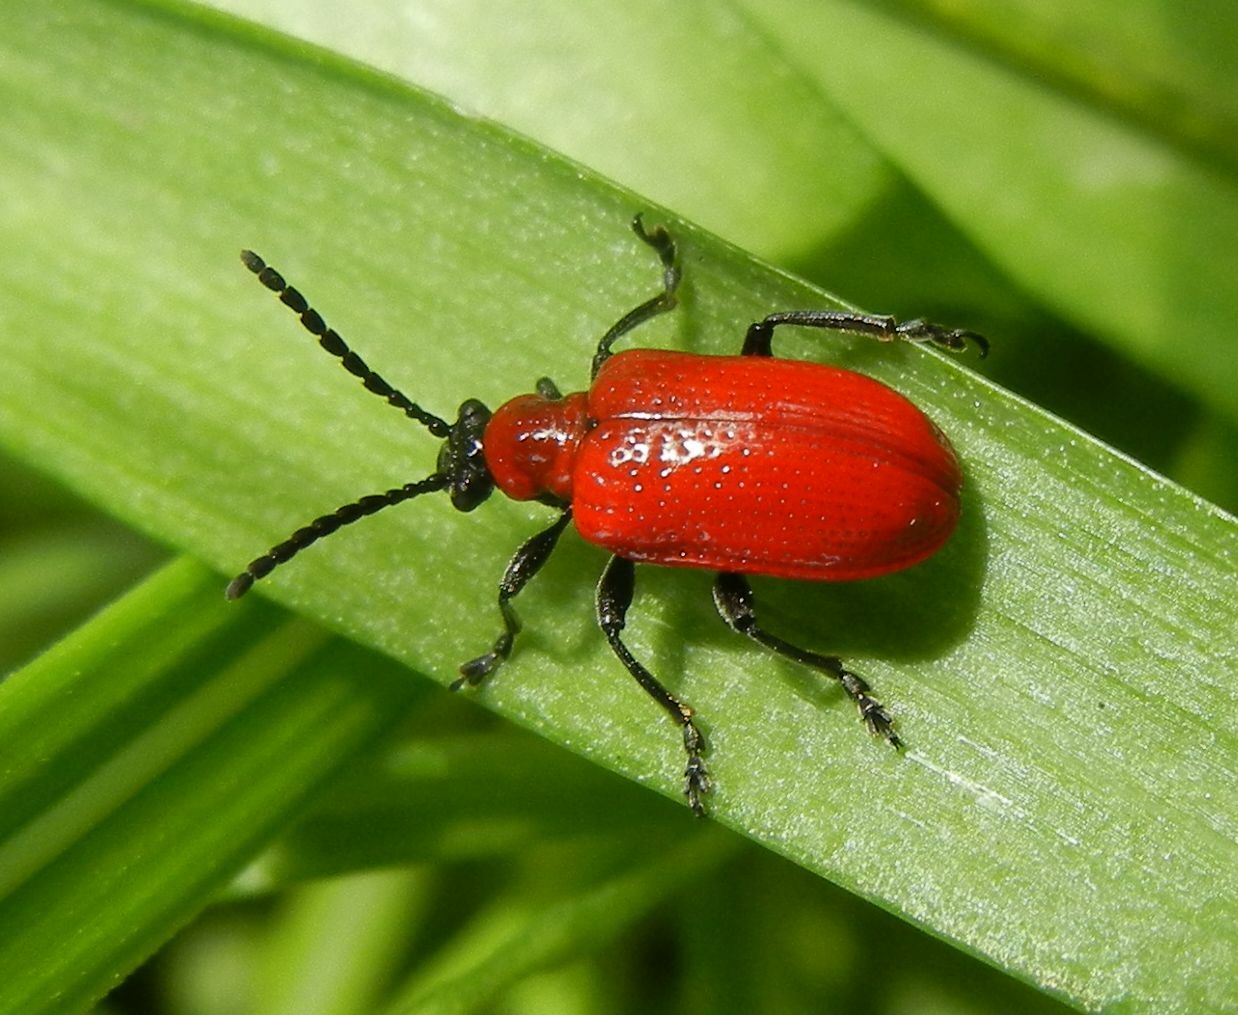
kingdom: Animalia
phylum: Arthropoda
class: Insecta
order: Coleoptera
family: Chrysomelidae
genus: Lilioceris
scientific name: Lilioceris lilii
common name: Lily beetle
